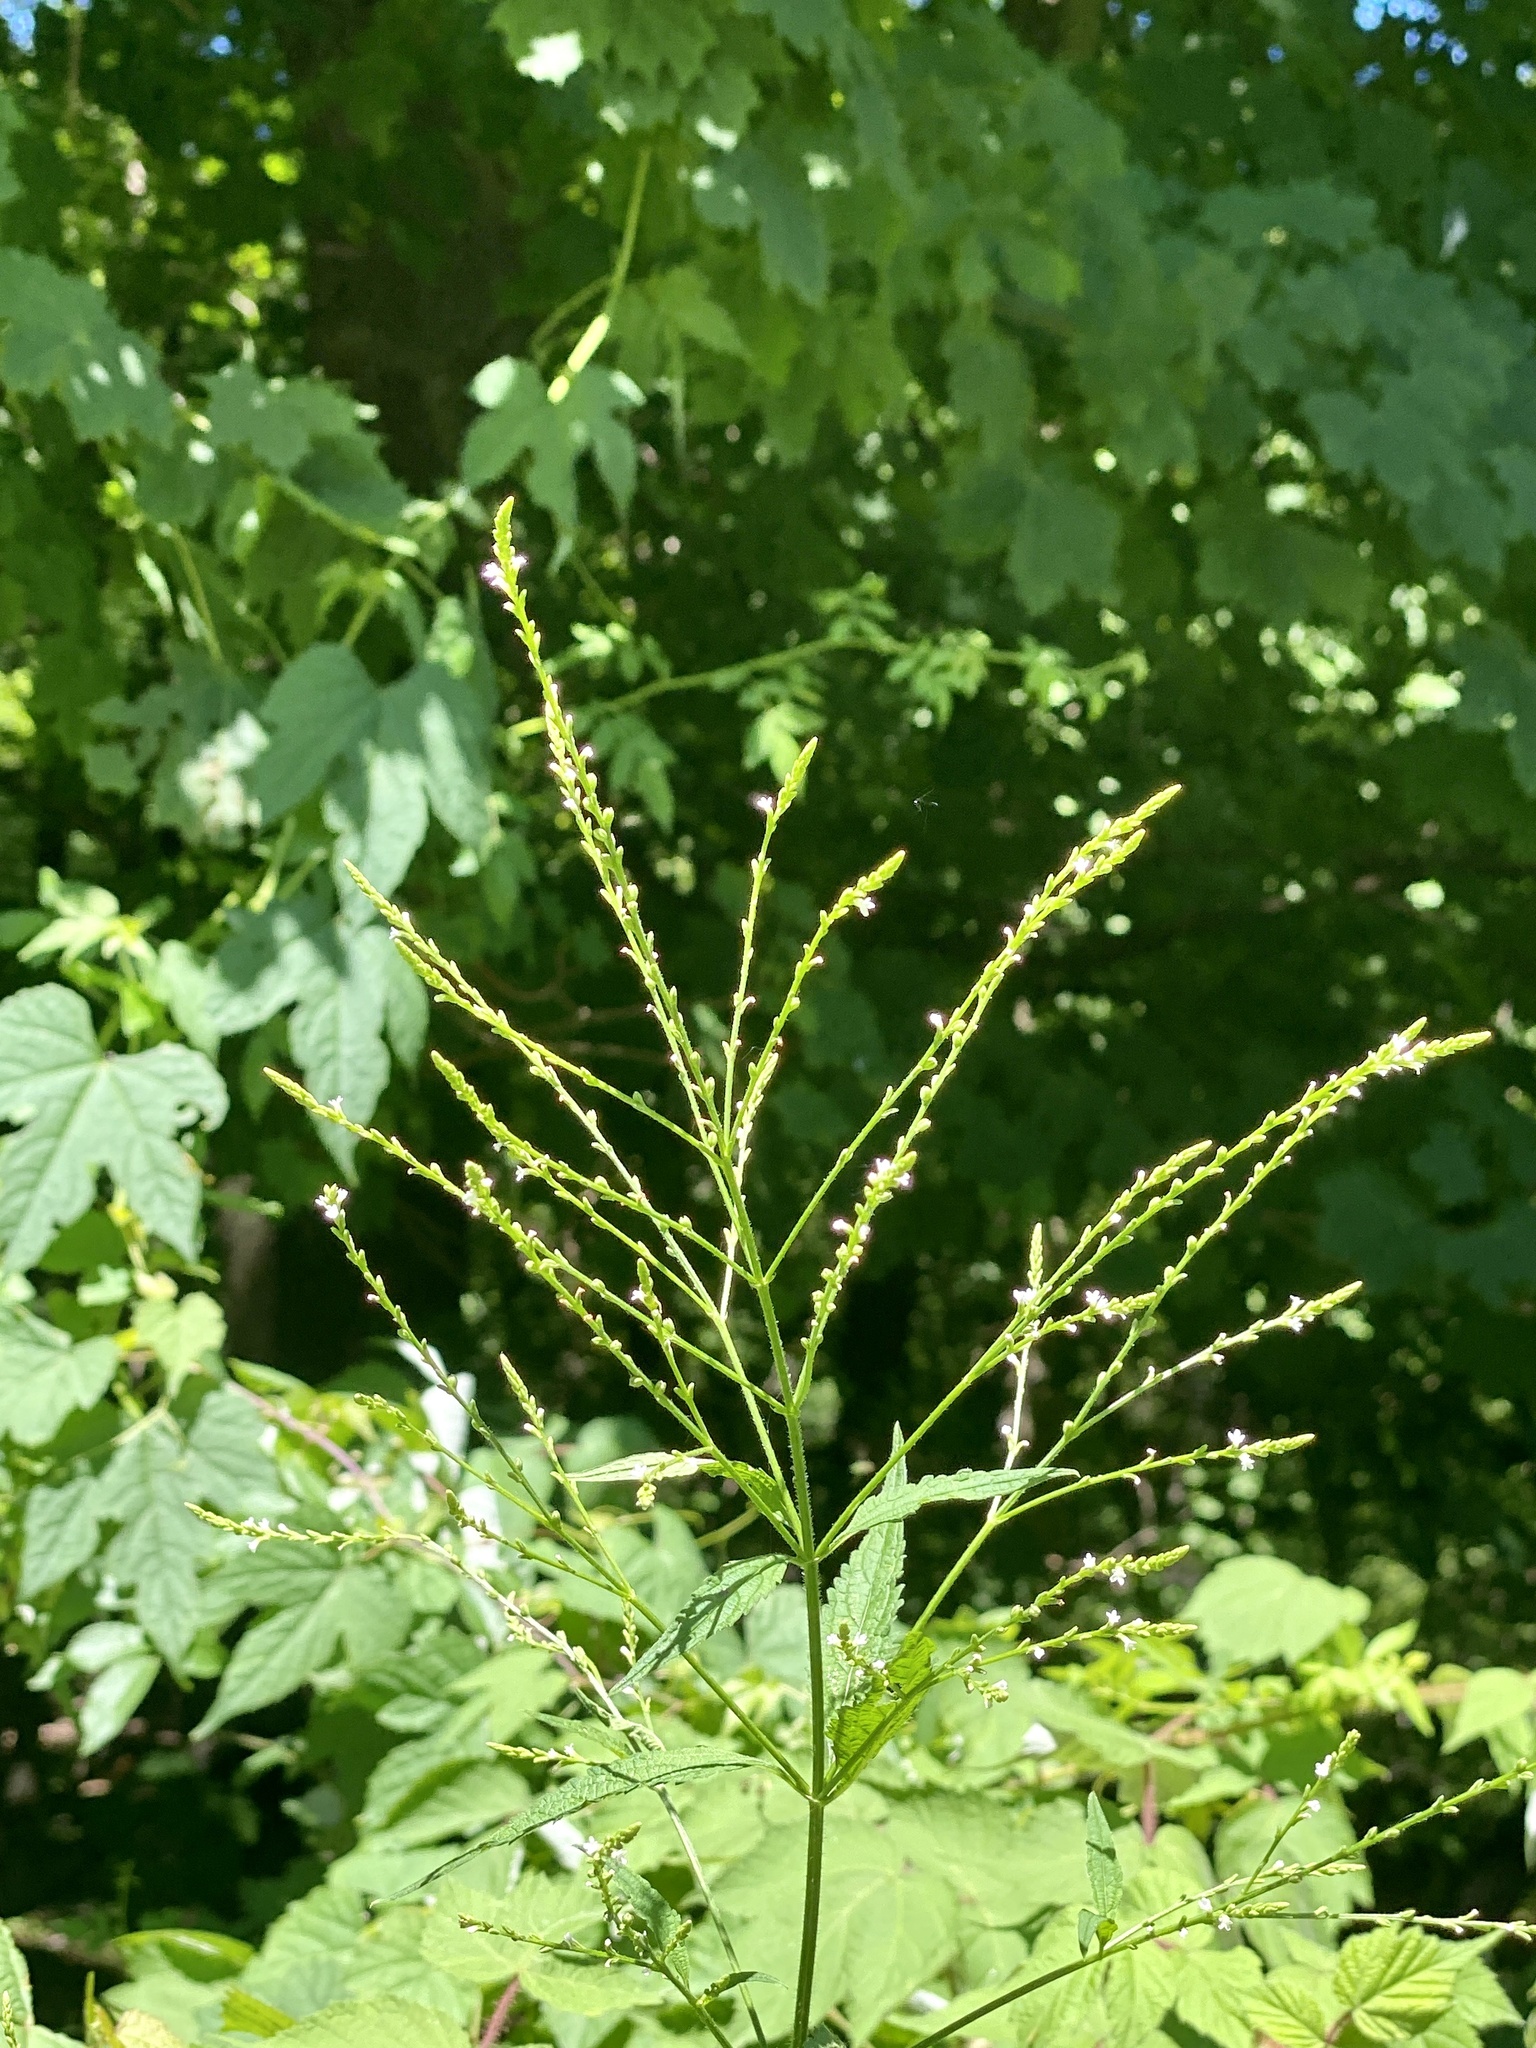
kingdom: Plantae
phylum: Tracheophyta
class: Magnoliopsida
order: Lamiales
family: Verbenaceae
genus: Verbena
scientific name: Verbena urticifolia
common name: Nettle-leaved vervain
